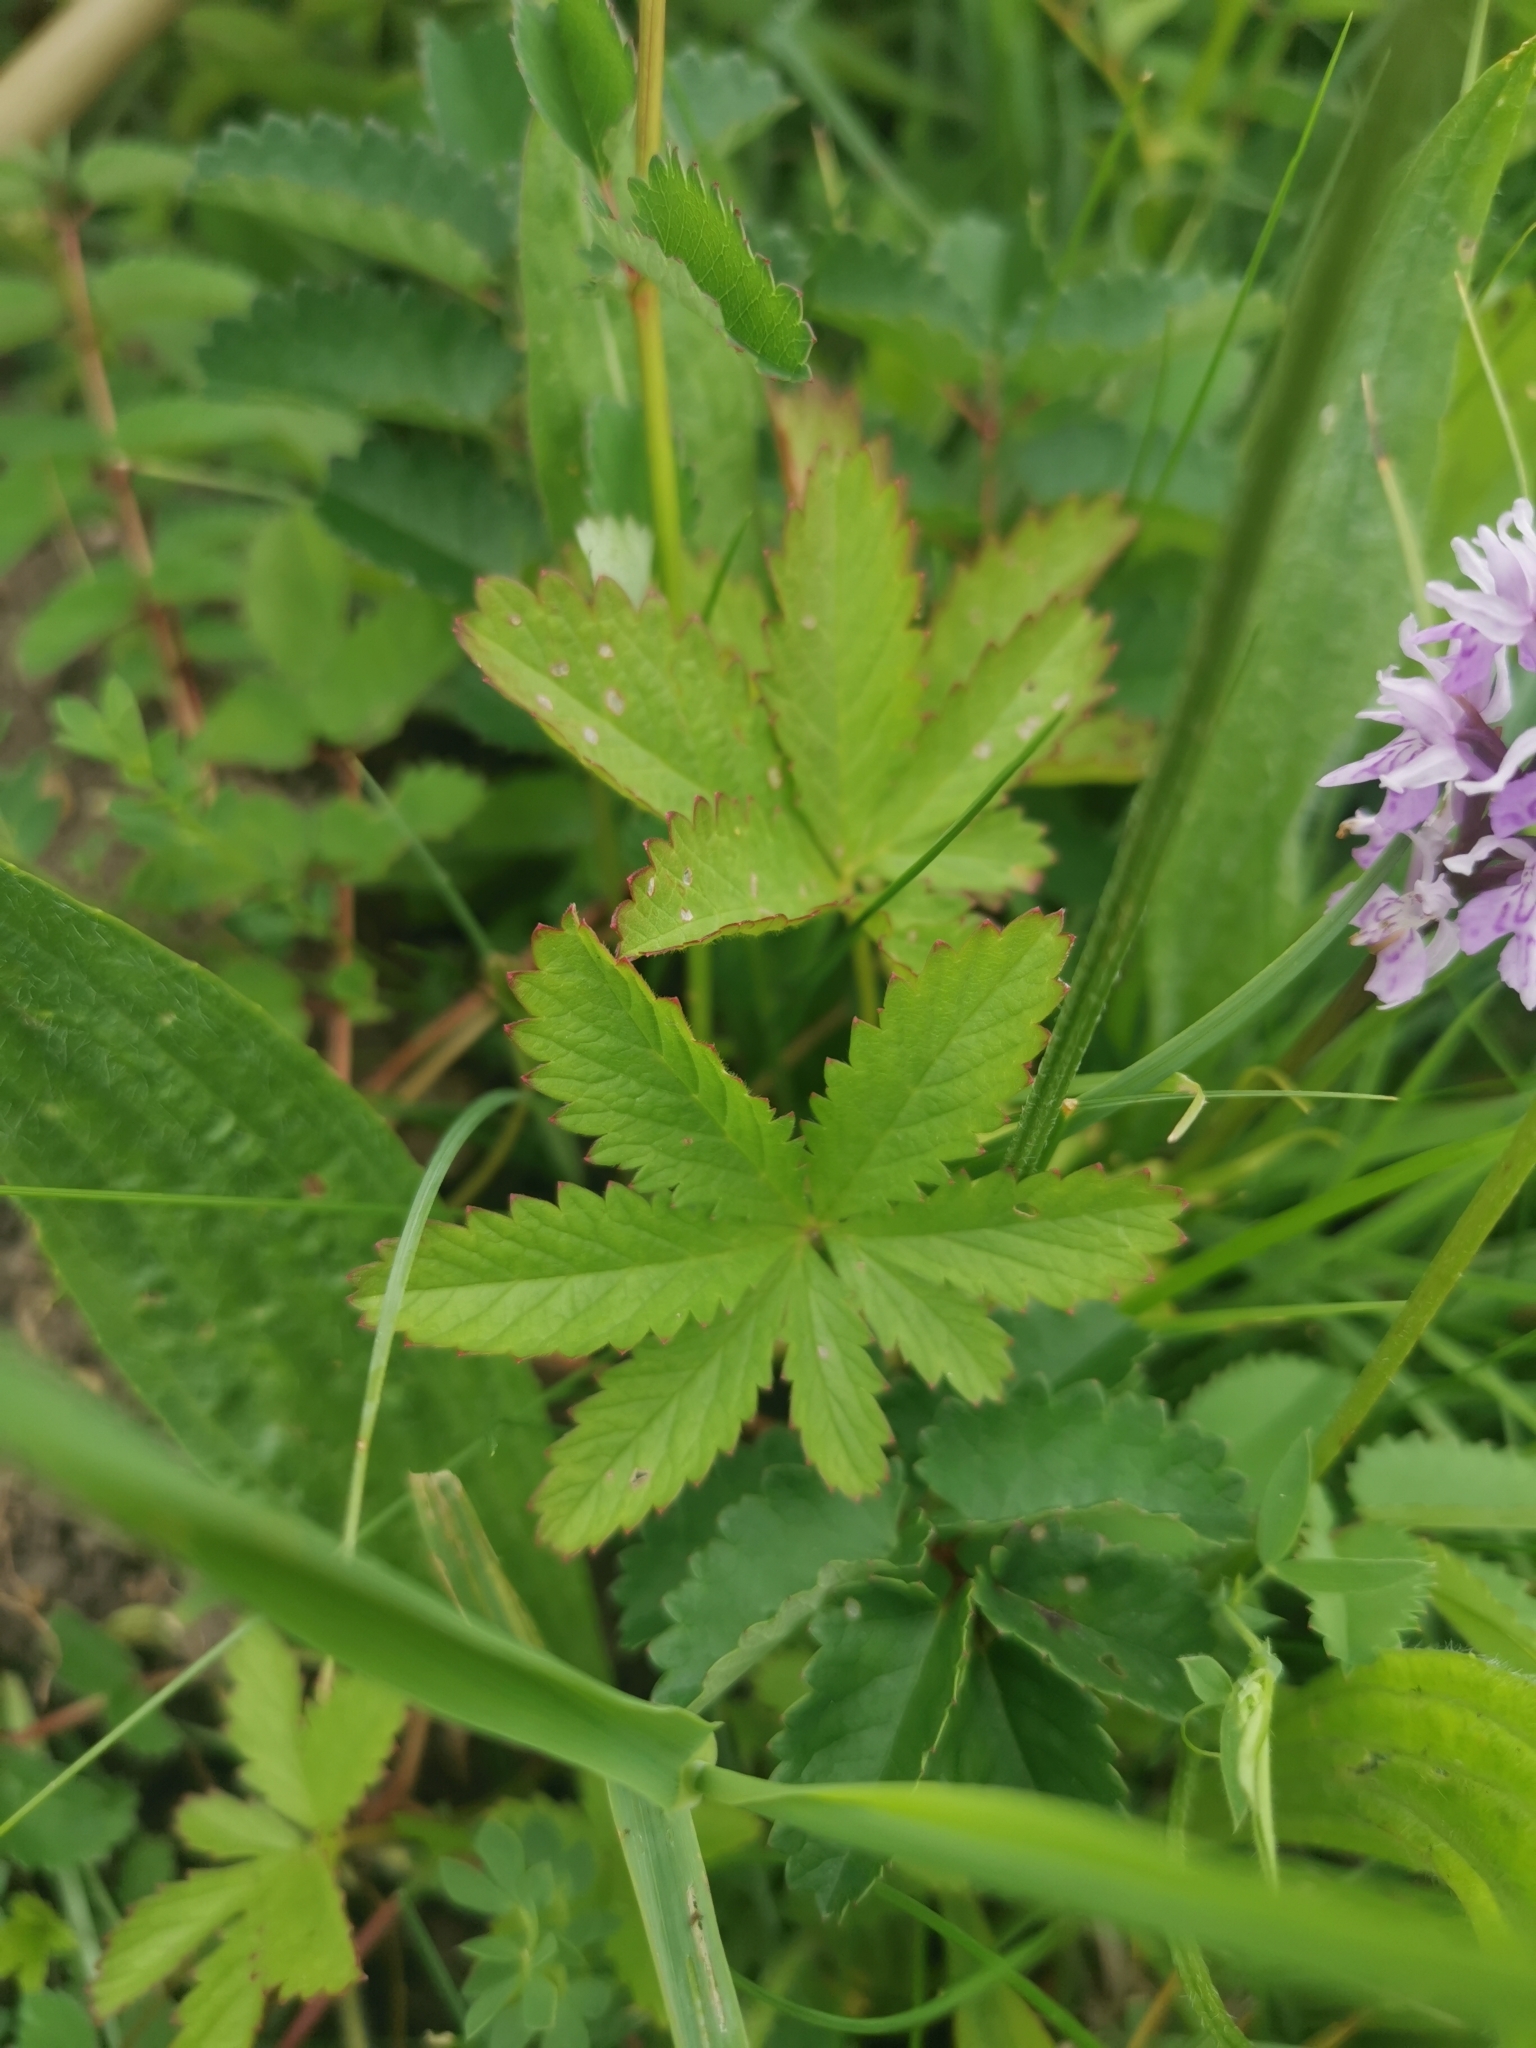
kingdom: Plantae
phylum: Tracheophyta
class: Magnoliopsida
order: Rosales
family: Rosaceae
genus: Potentilla
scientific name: Potentilla reptans
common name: Creeping cinquefoil
